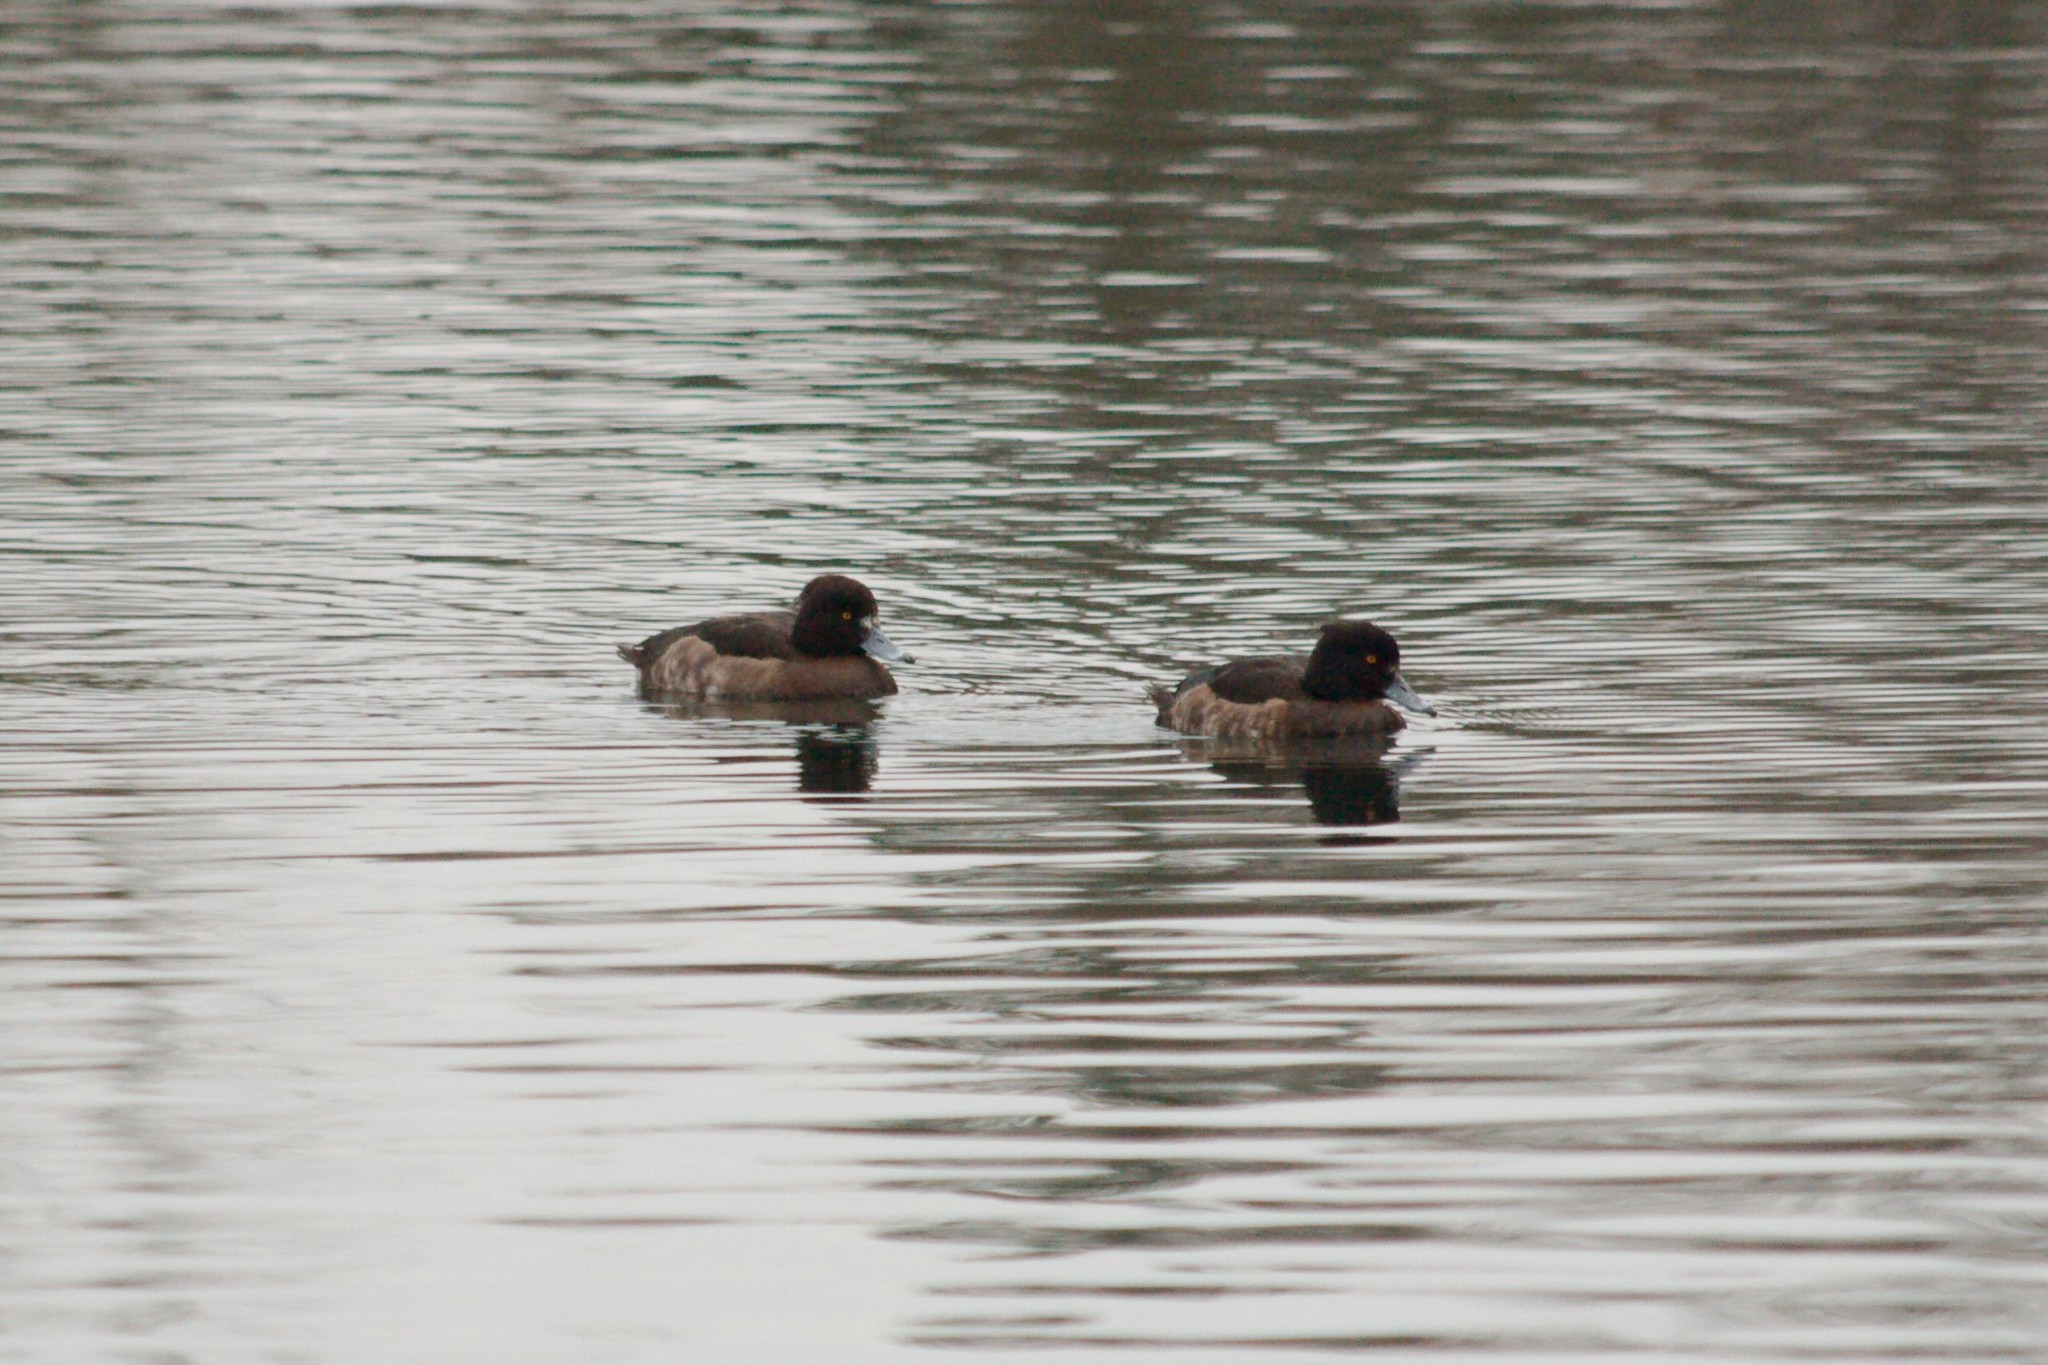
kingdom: Animalia
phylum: Chordata
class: Aves
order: Anseriformes
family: Anatidae
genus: Aythya
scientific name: Aythya fuligula
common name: Tufted duck
